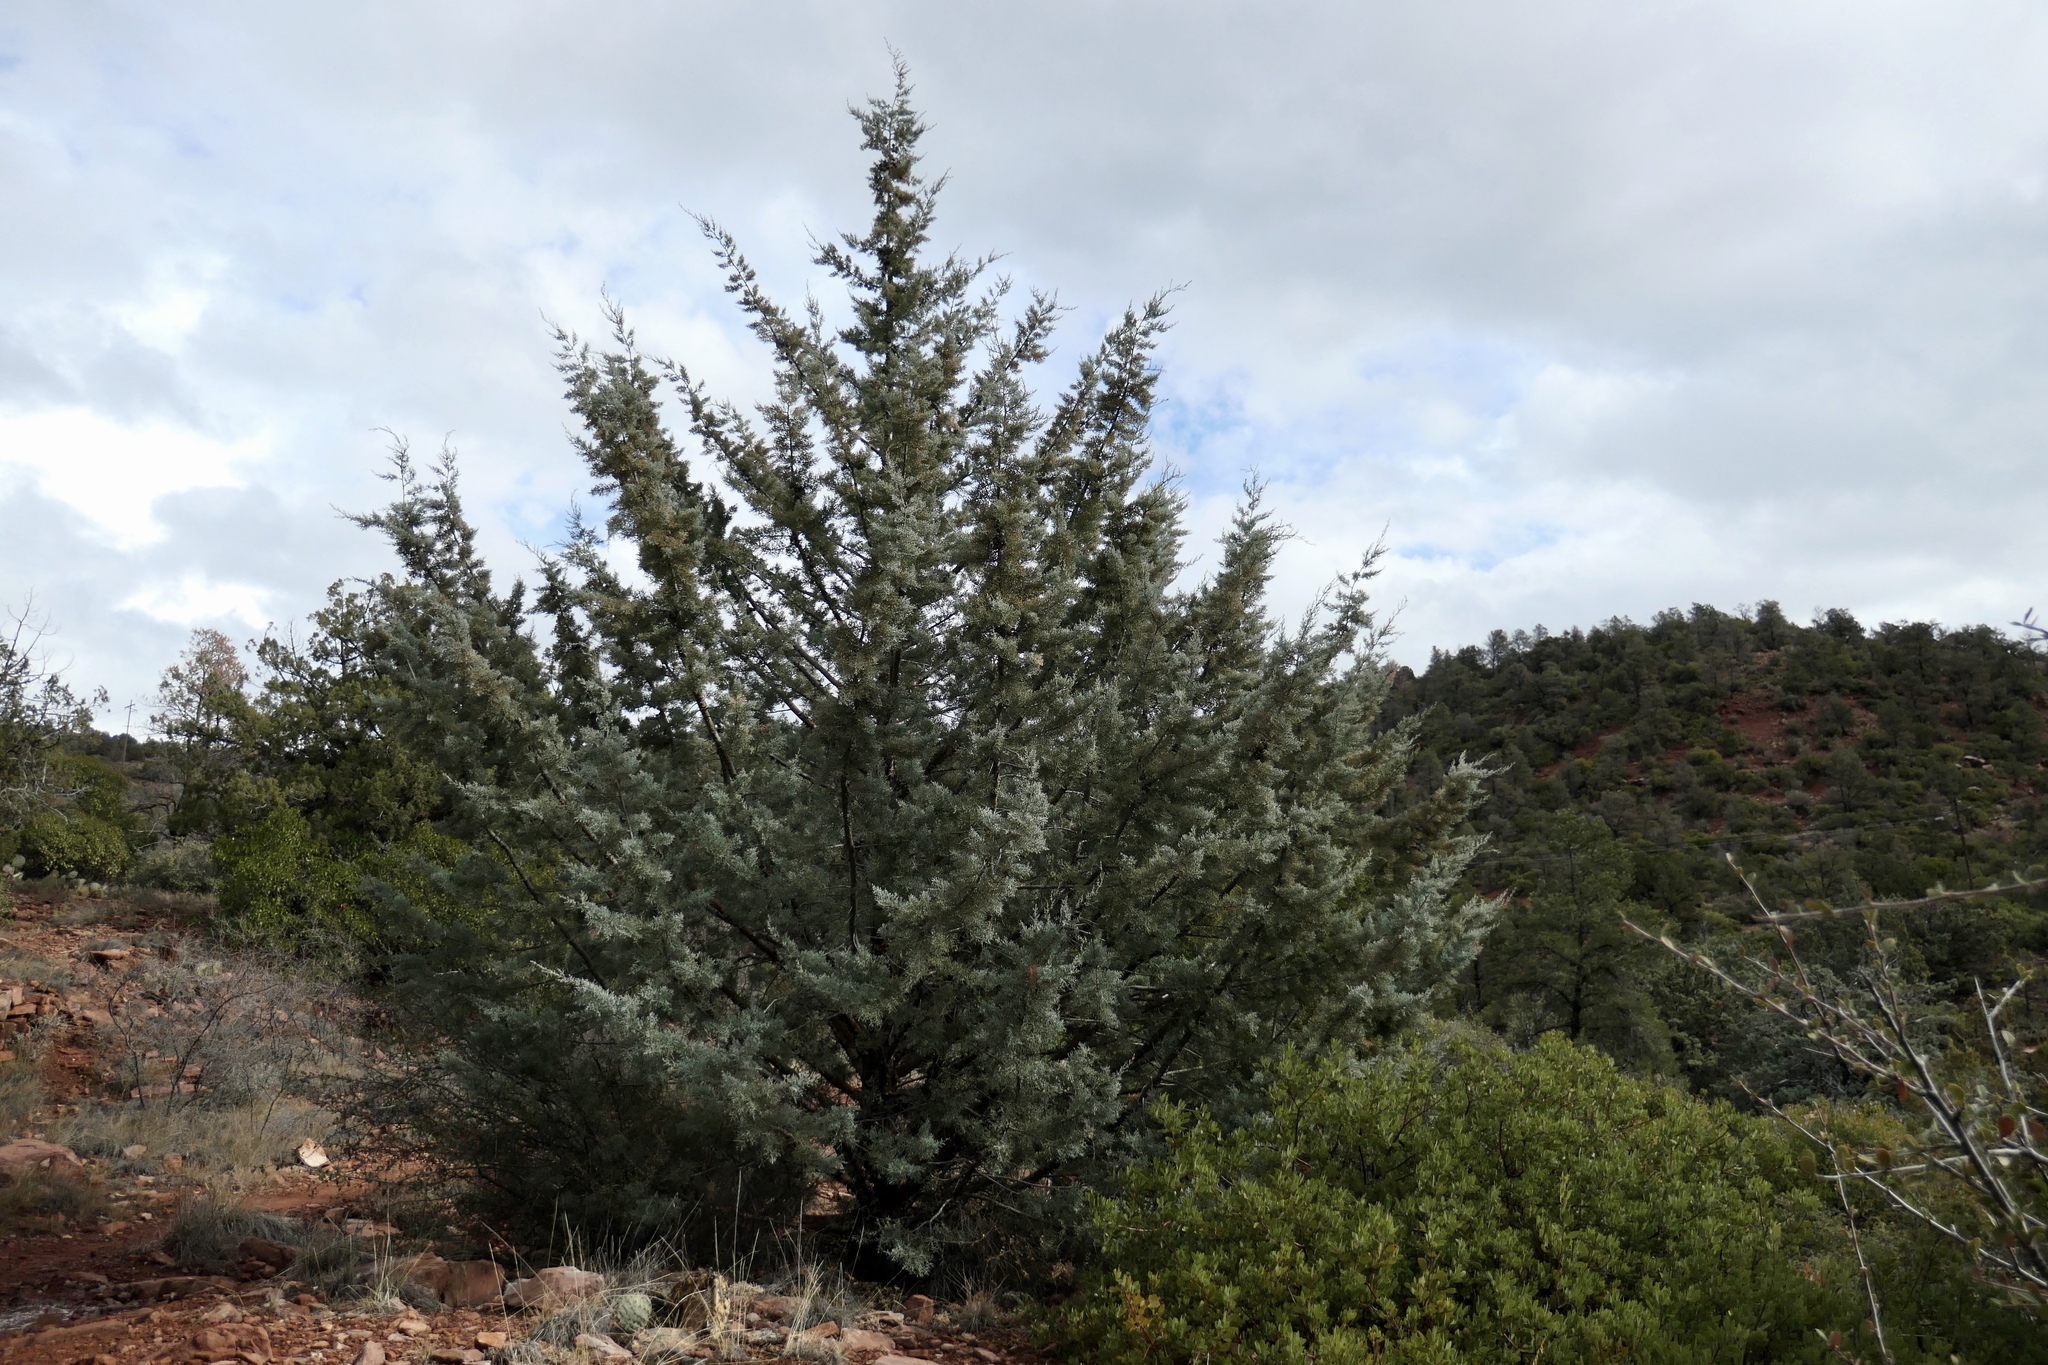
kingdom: Plantae
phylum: Tracheophyta
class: Pinopsida
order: Pinales
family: Cupressaceae
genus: Cupressus
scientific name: Cupressus arizonica
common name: Arizona cypress
